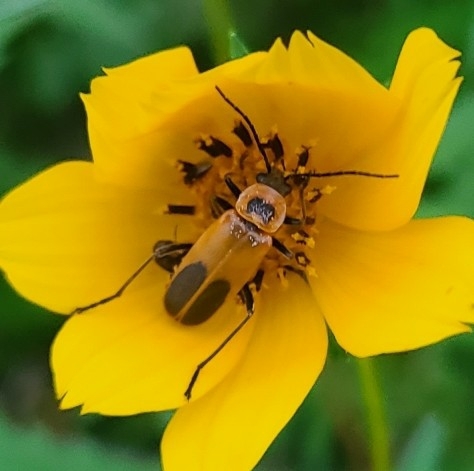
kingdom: Animalia
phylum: Arthropoda
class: Insecta
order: Coleoptera
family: Cantharidae
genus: Chauliognathus
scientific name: Chauliognathus pensylvanicus
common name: Goldenrod soldier beetle
